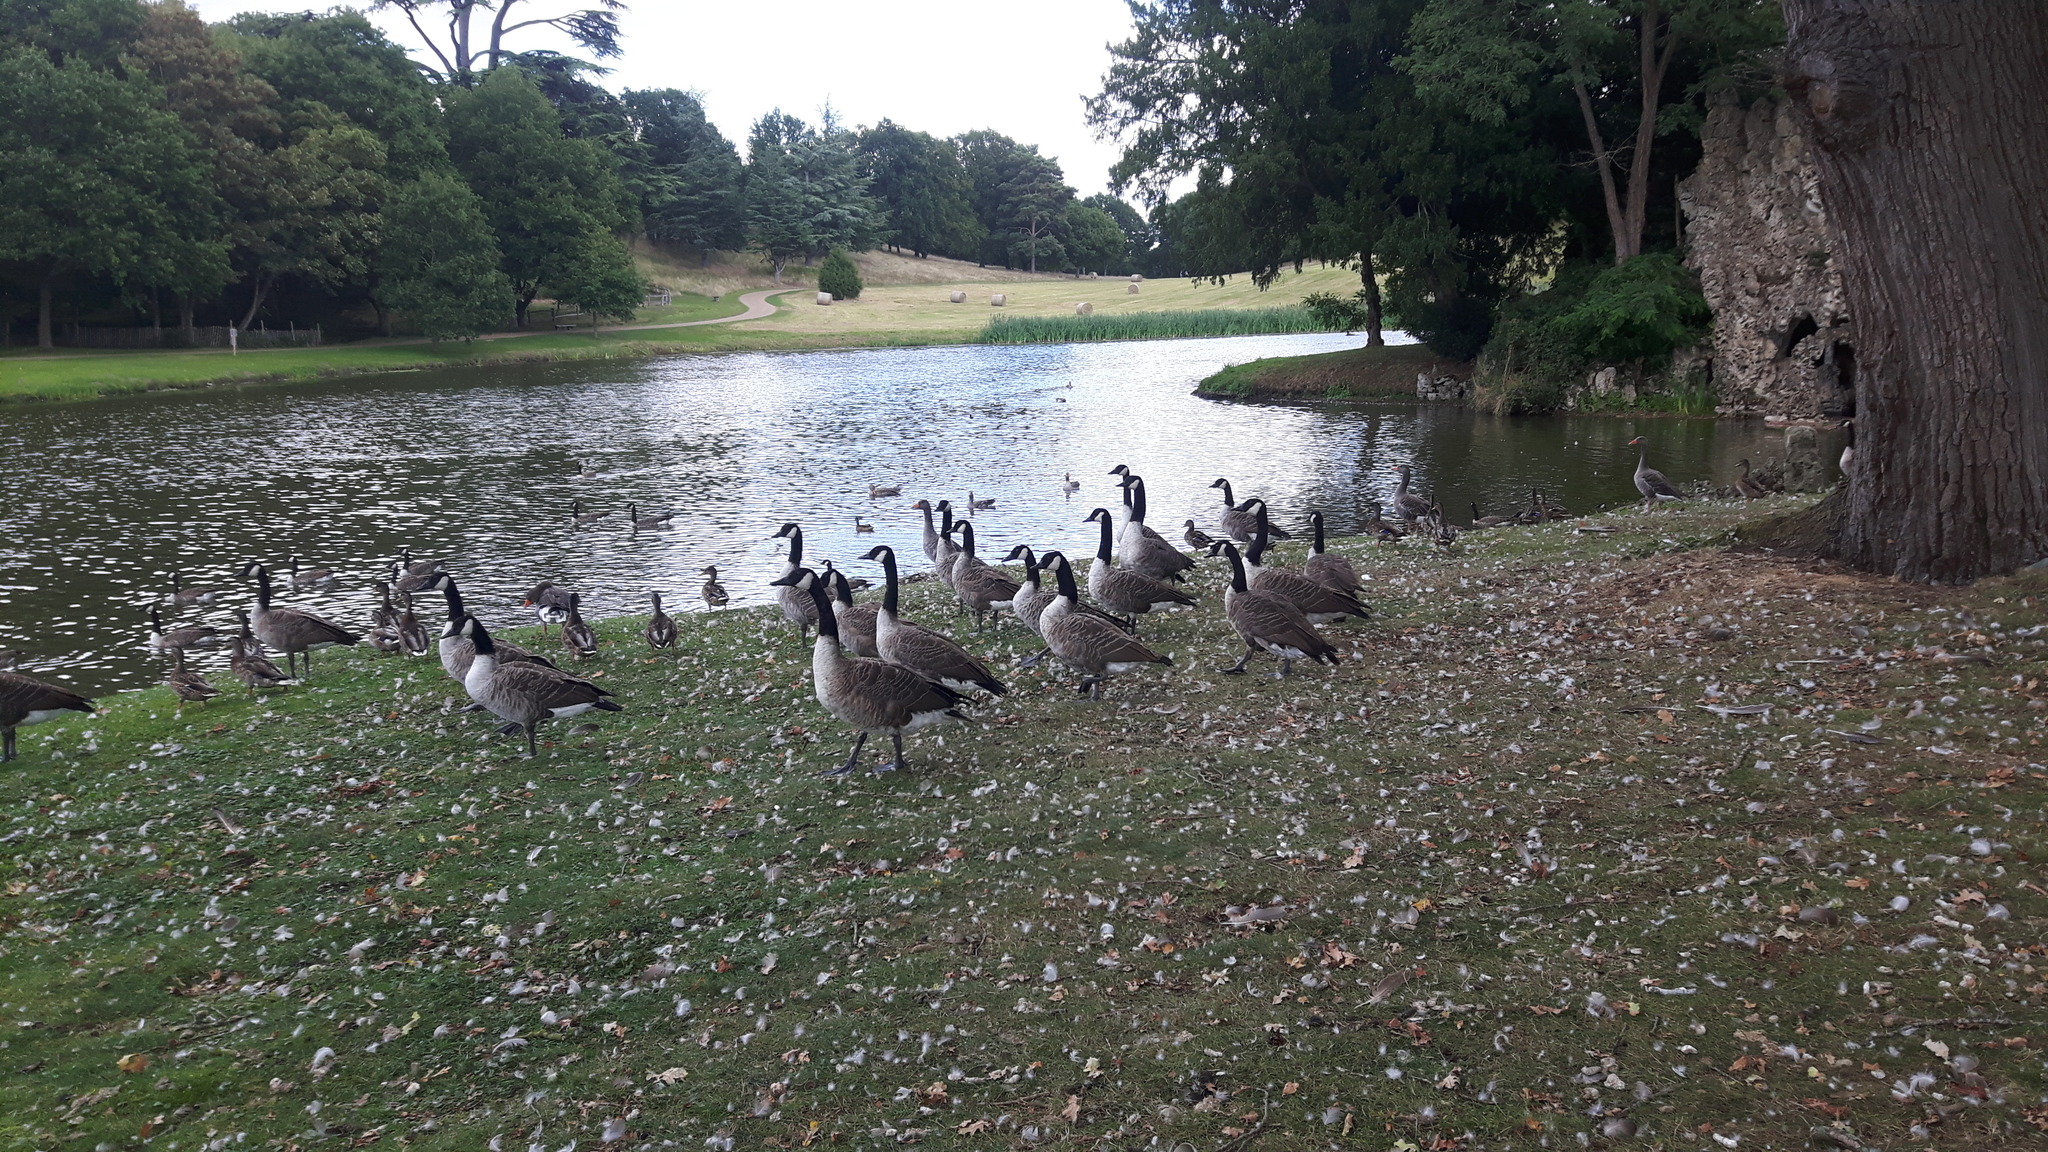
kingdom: Animalia
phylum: Chordata
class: Aves
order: Anseriformes
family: Anatidae
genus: Branta
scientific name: Branta canadensis
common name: Canada goose
